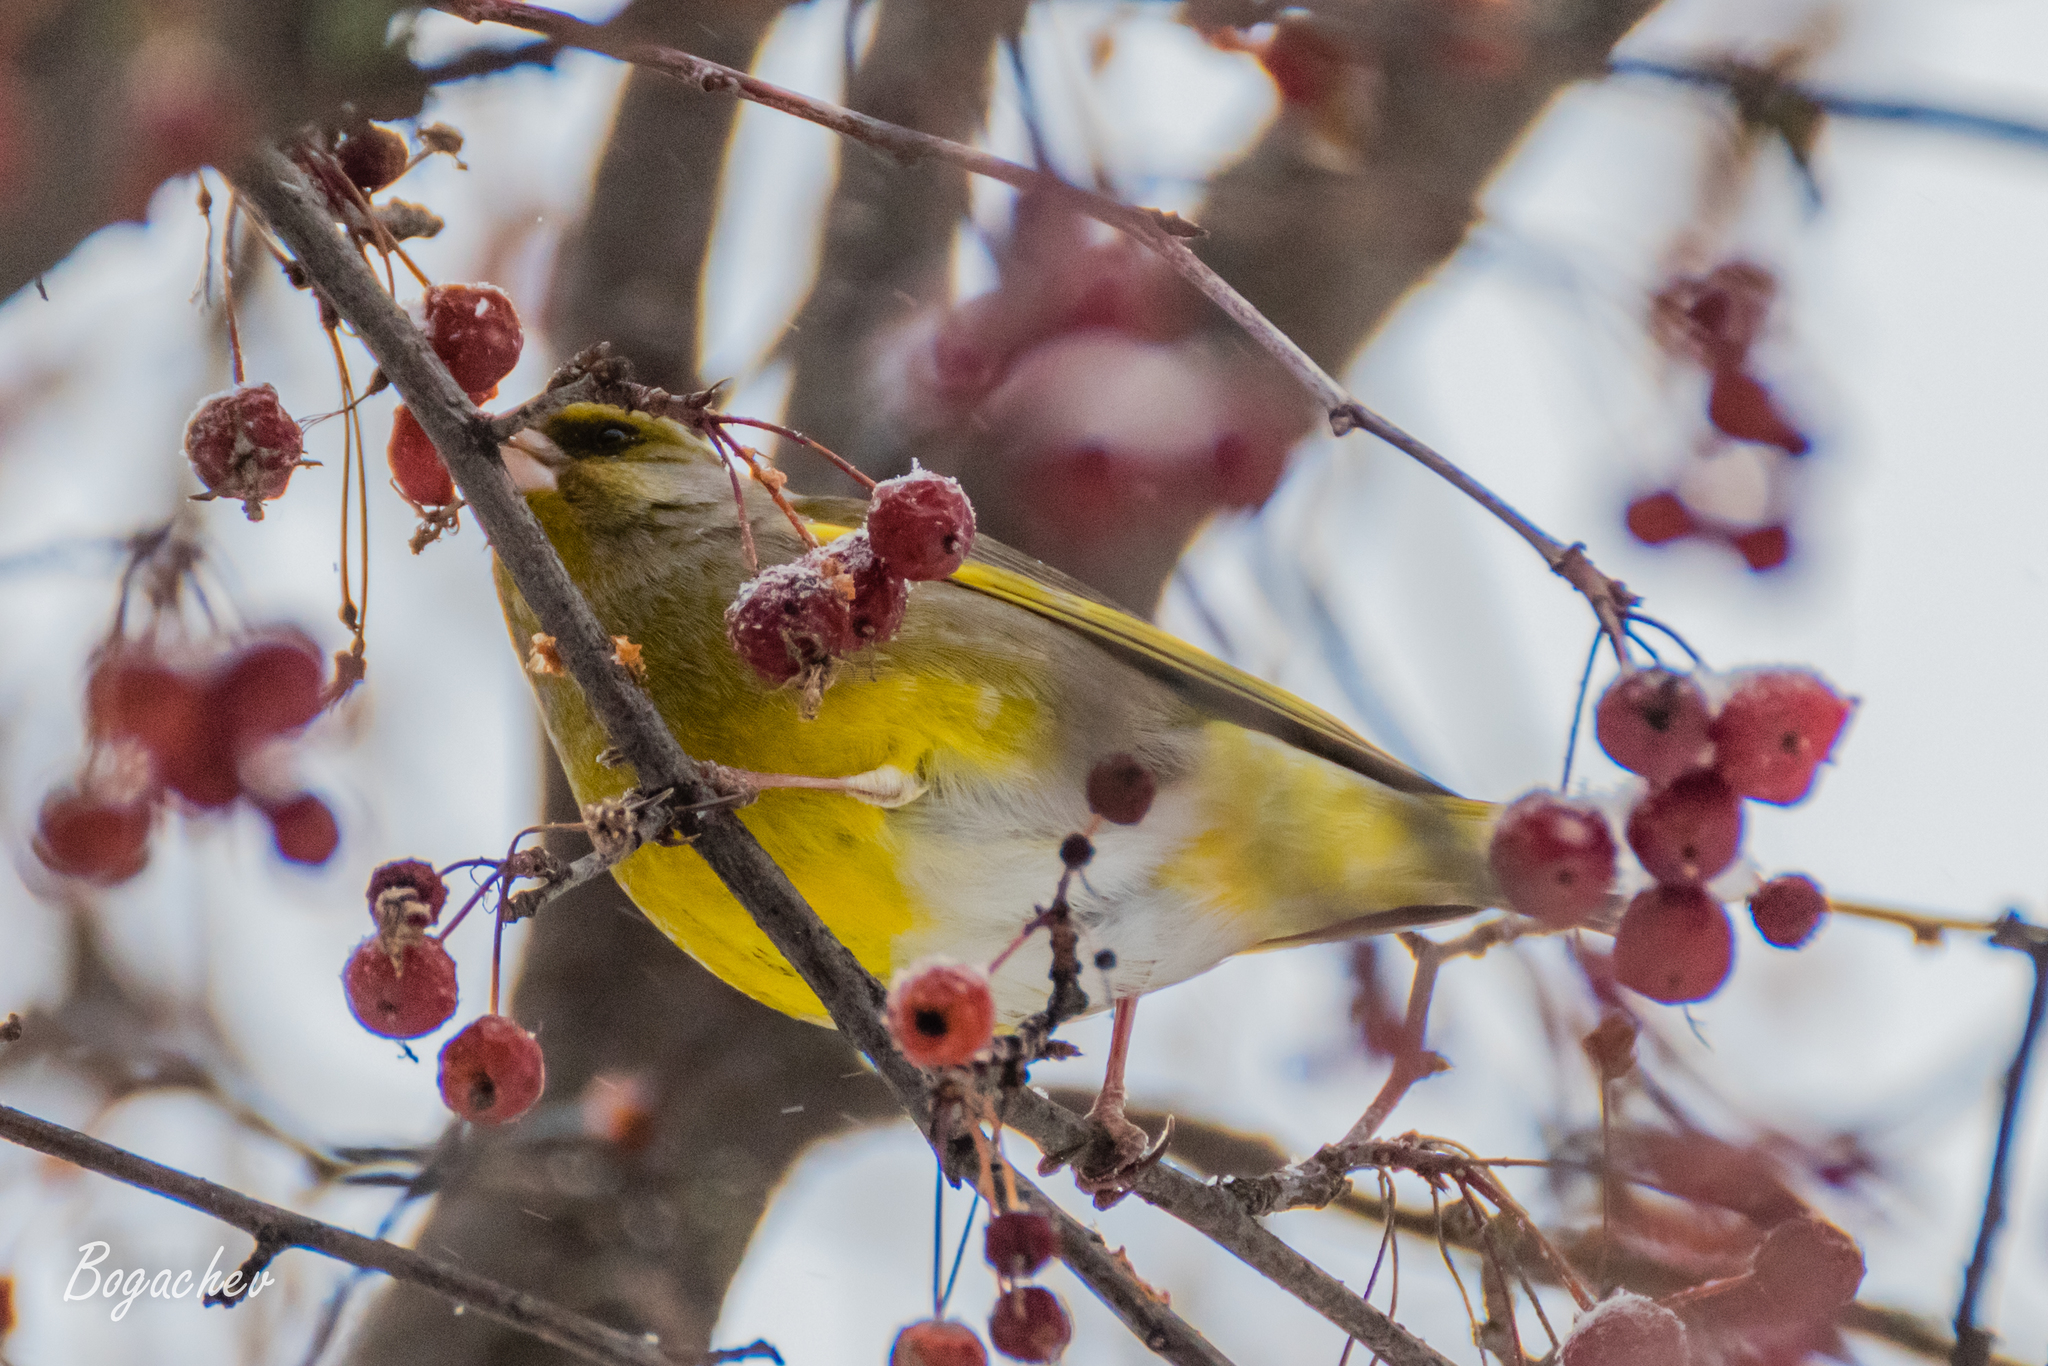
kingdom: Plantae
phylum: Tracheophyta
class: Liliopsida
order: Poales
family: Poaceae
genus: Chloris
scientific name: Chloris chloris
